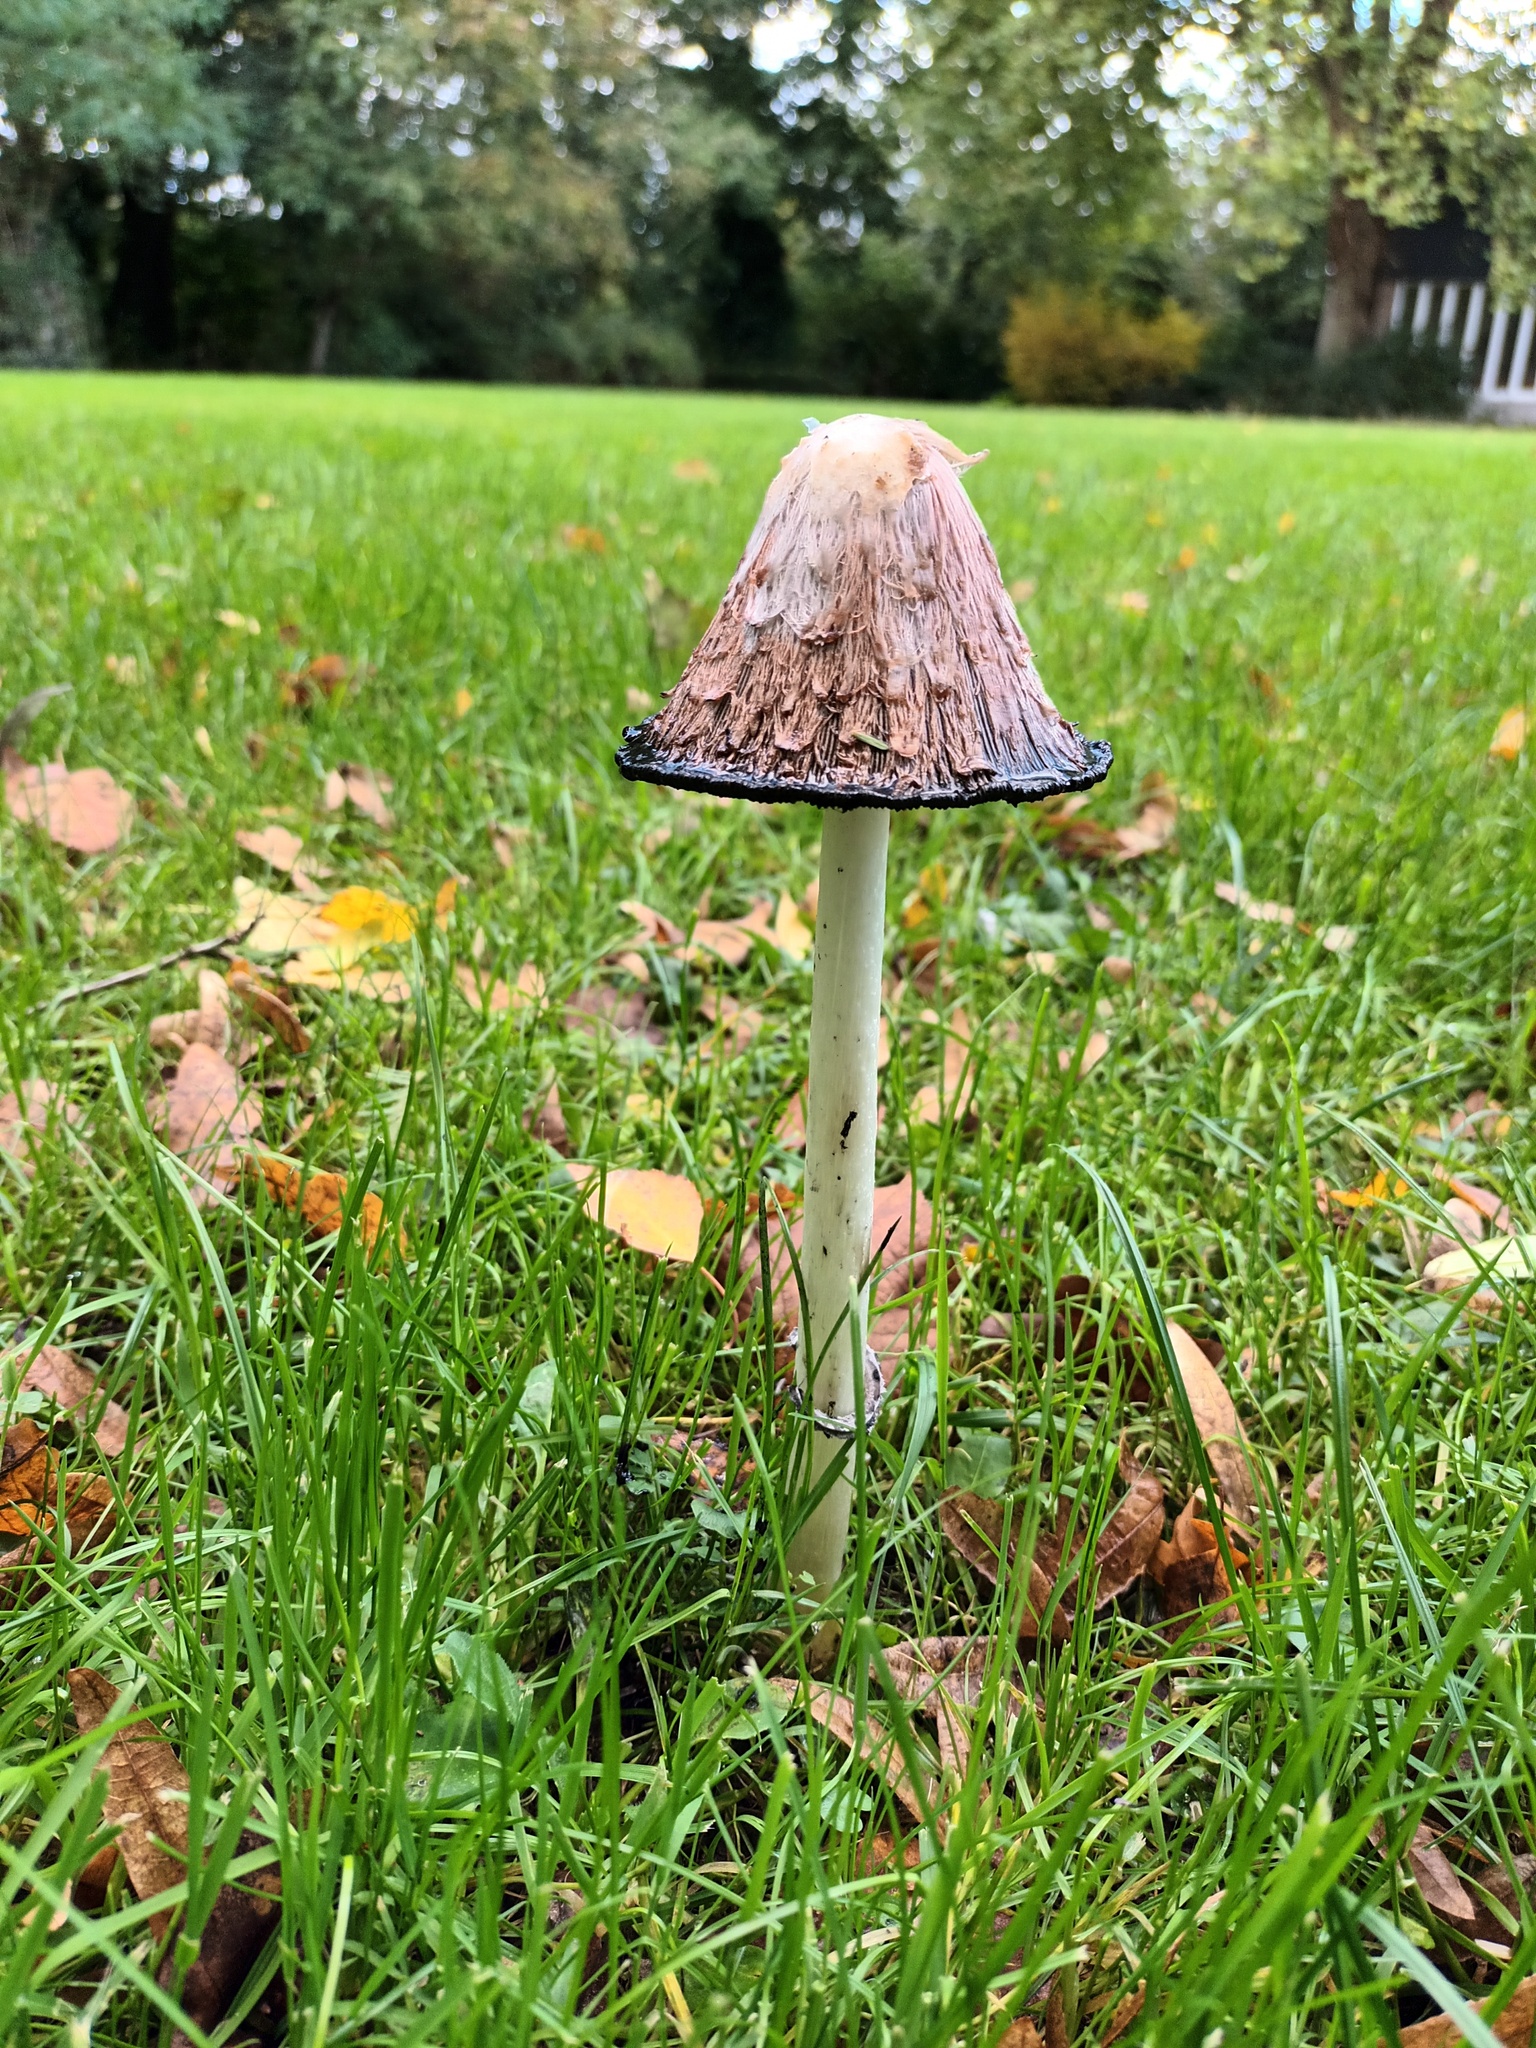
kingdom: Fungi
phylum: Basidiomycota
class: Agaricomycetes
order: Agaricales
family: Agaricaceae
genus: Coprinus
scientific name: Coprinus comatus
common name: Lawyer's wig
